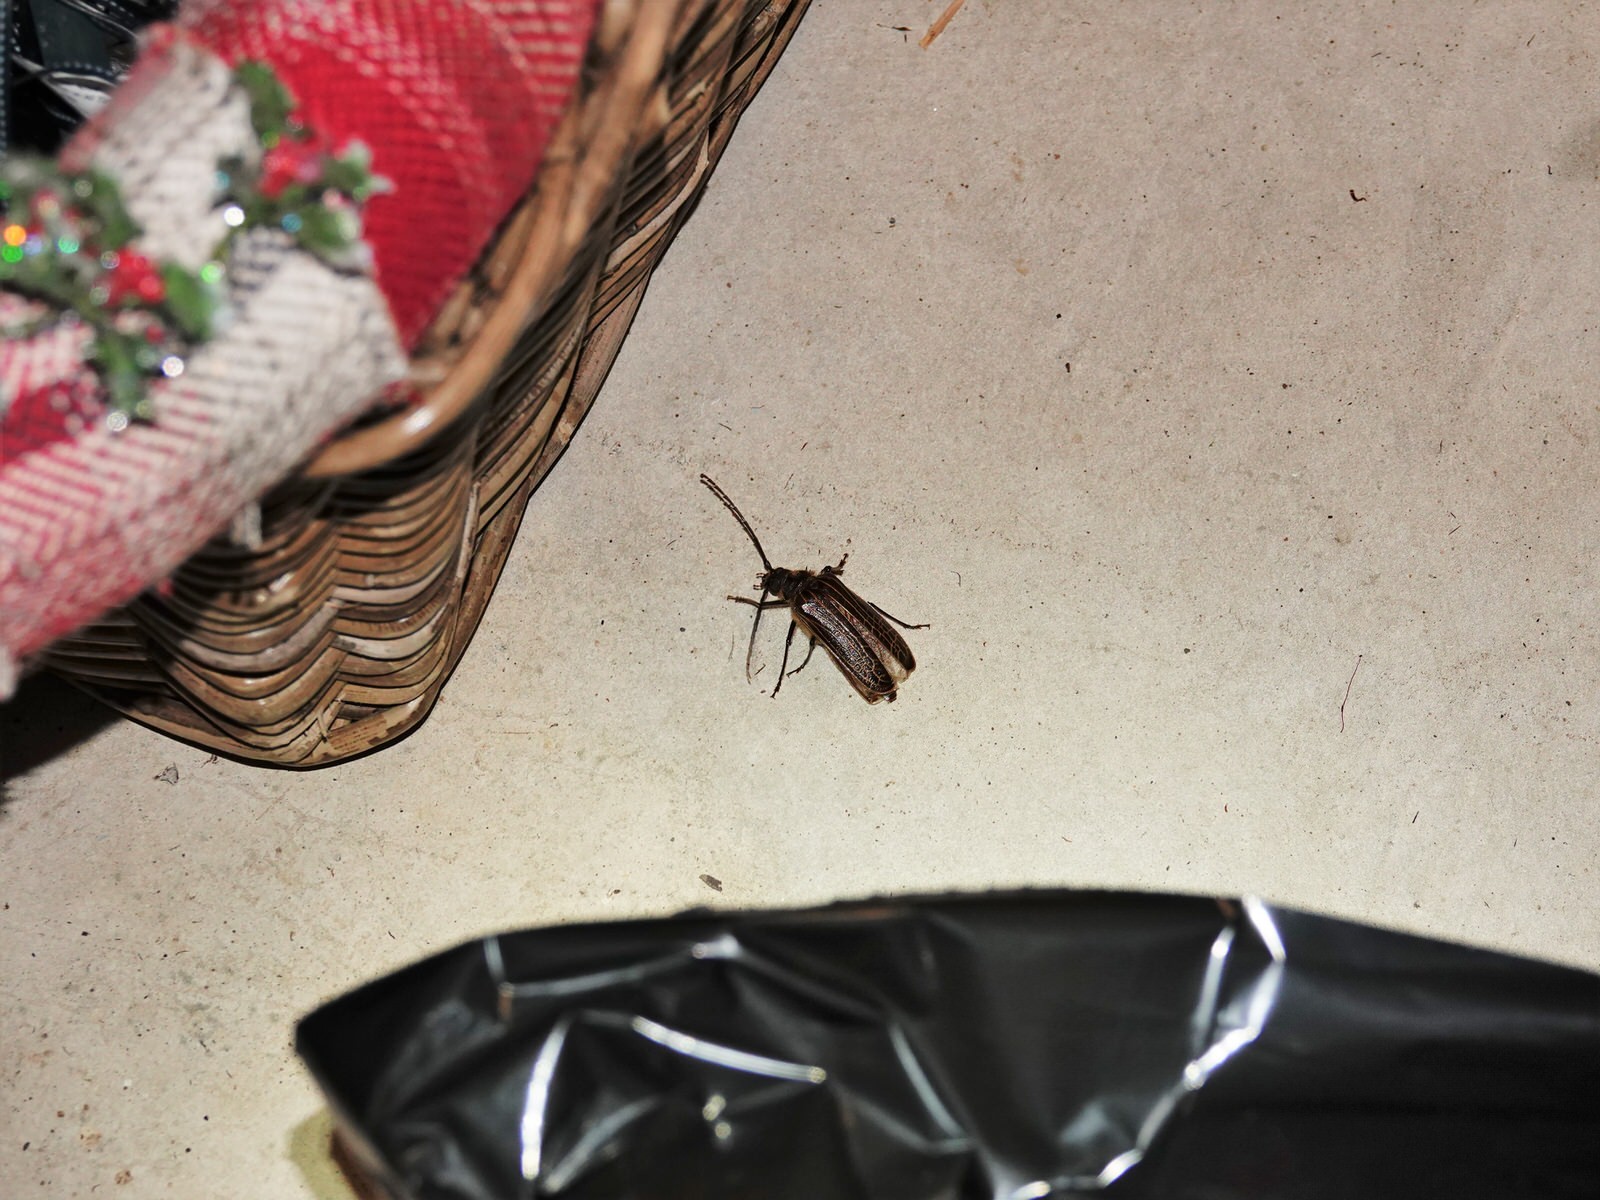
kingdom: Animalia
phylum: Arthropoda
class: Insecta
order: Coleoptera
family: Cerambycidae
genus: Prionoplus
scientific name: Prionoplus reticularis
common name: Huhu beetle
